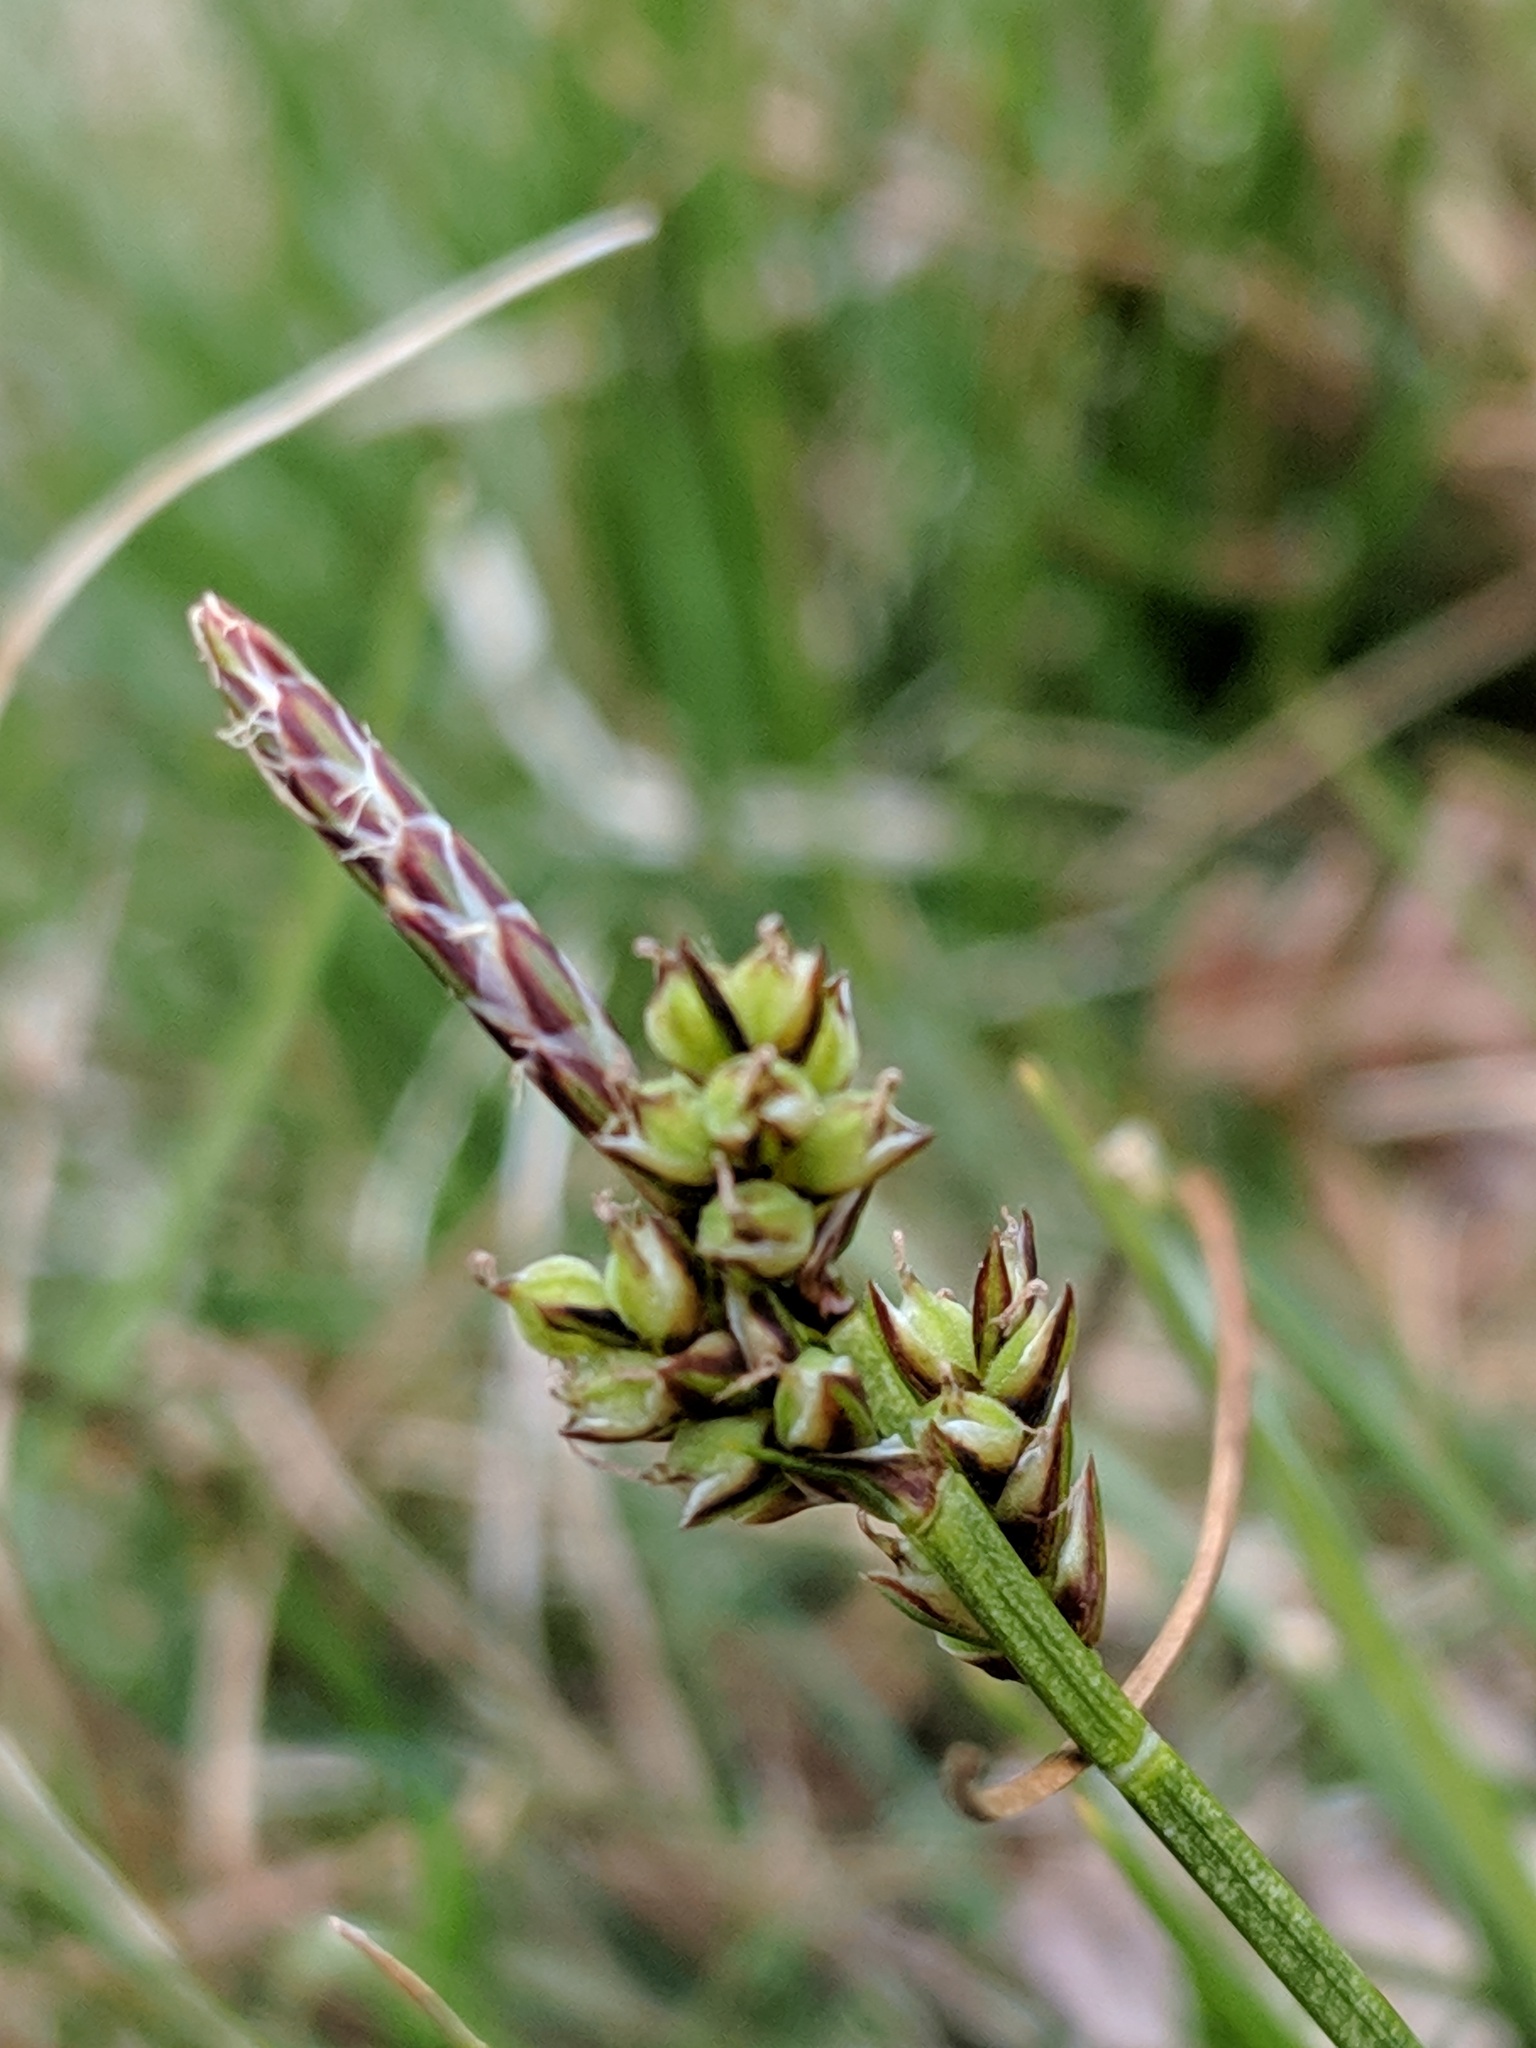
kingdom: Plantae
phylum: Tracheophyta
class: Liliopsida
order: Poales
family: Cyperaceae
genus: Carex
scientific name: Carex pilulifera
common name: Pill sedge
